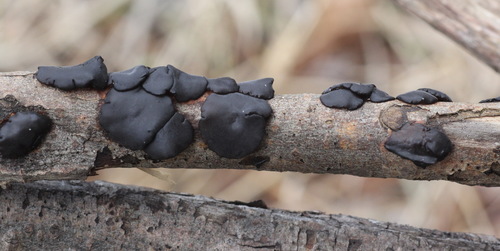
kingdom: Fungi
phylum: Basidiomycota
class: Agaricomycetes
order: Auriculariales
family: Auriculariaceae
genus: Exidia
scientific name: Exidia
